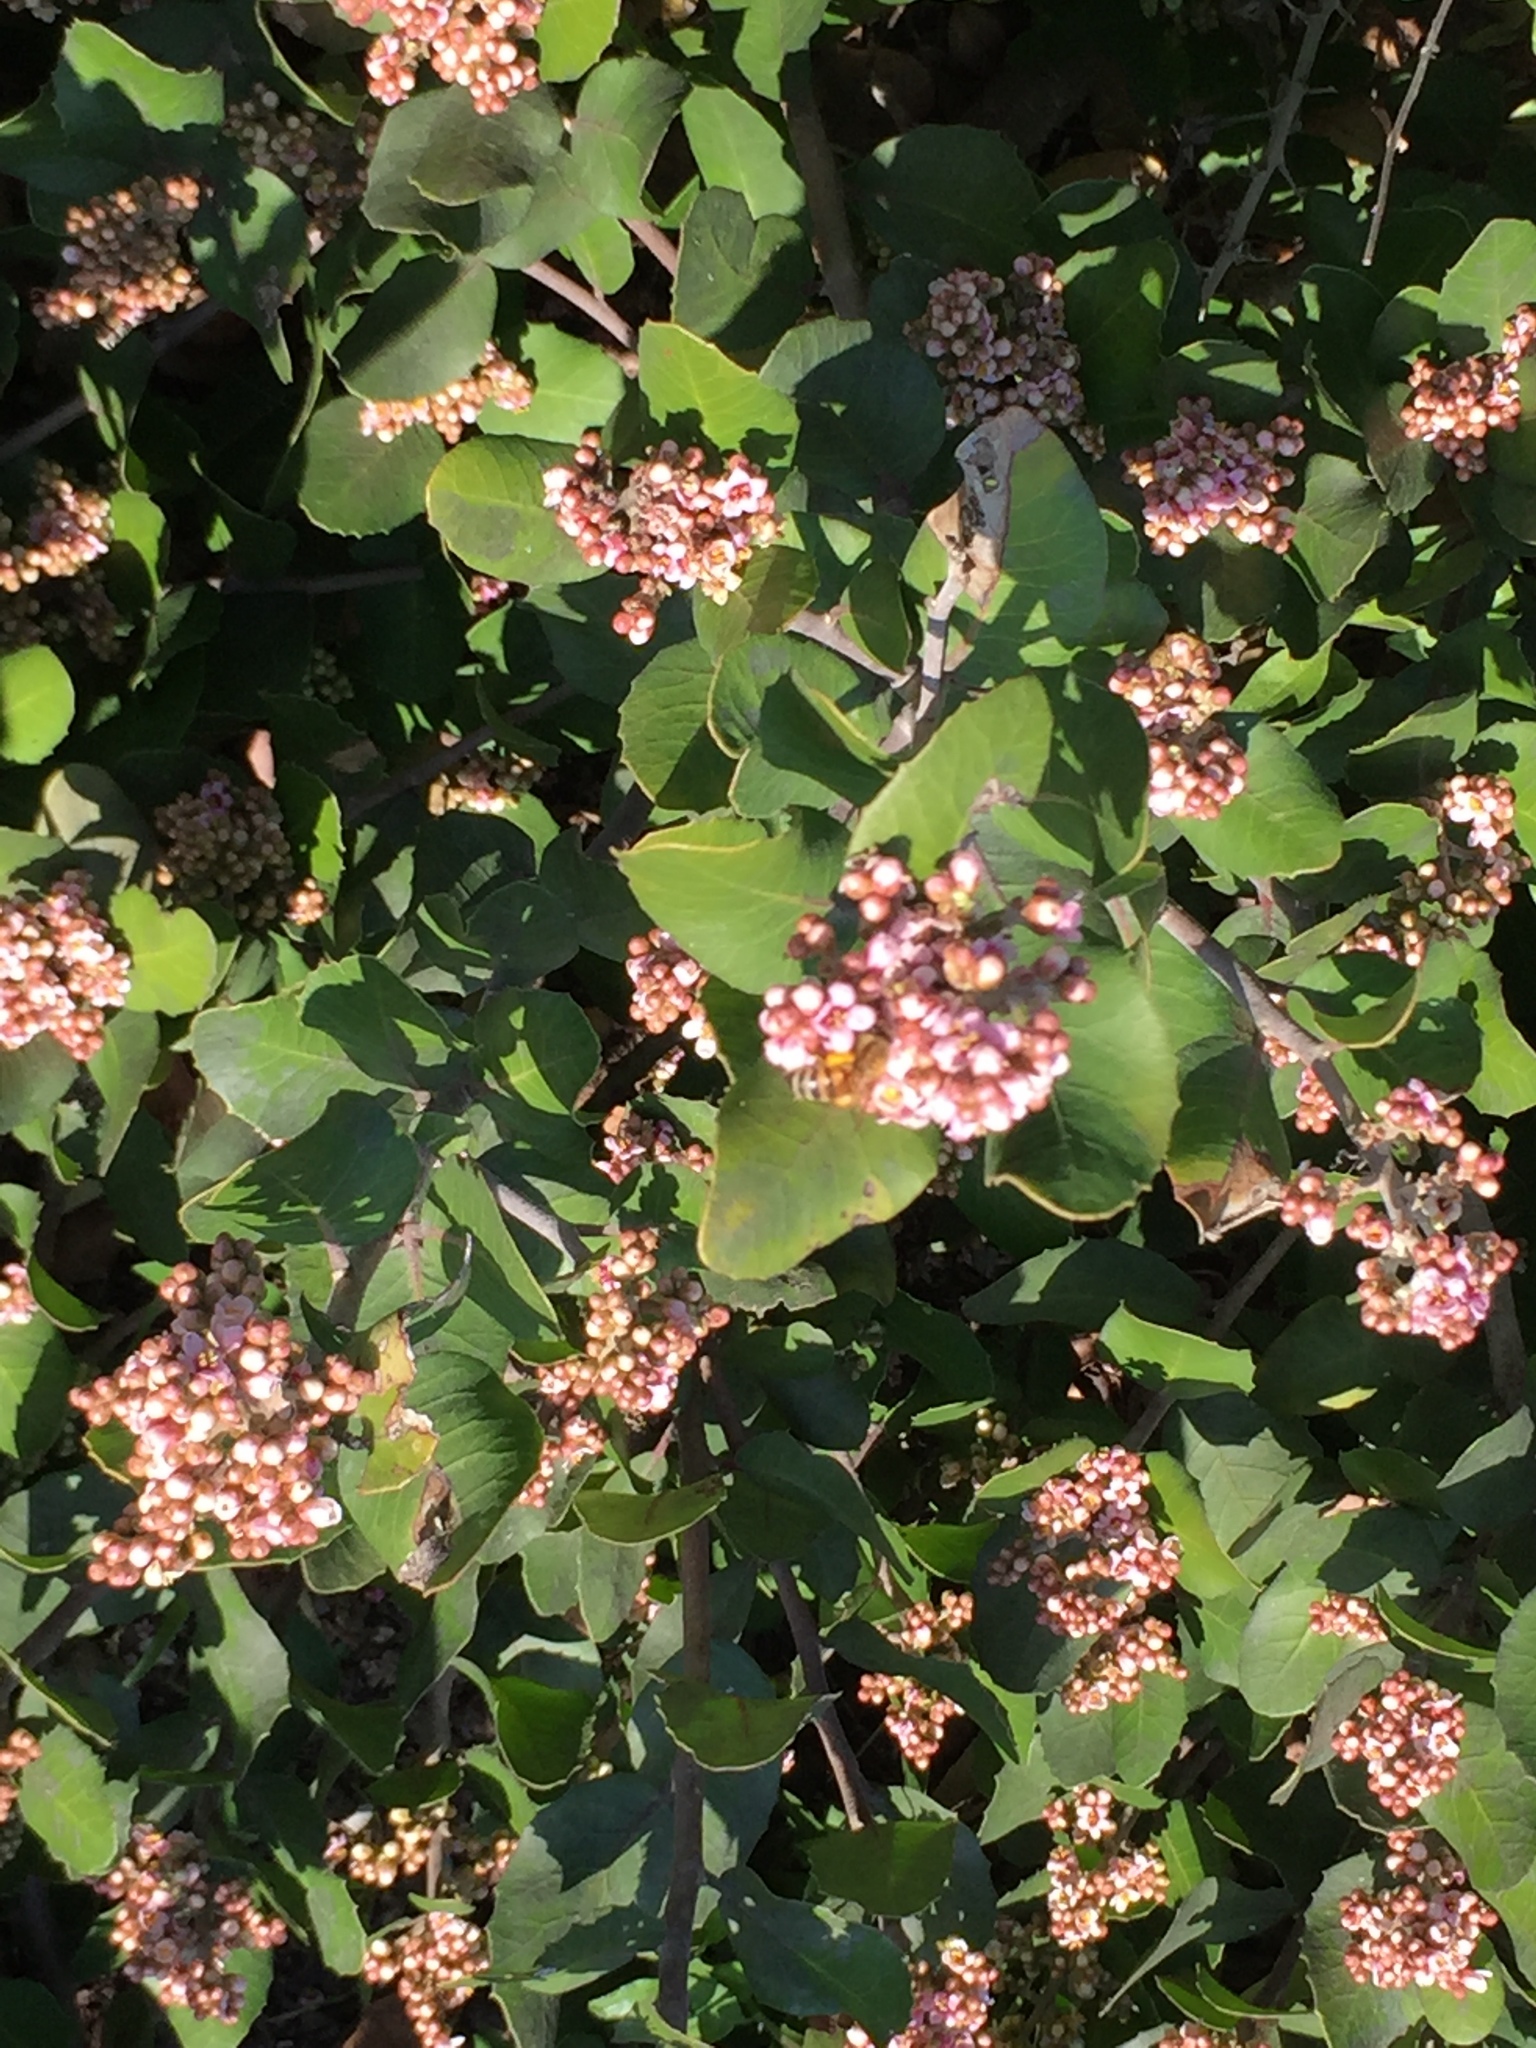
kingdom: Plantae
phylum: Tracheophyta
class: Magnoliopsida
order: Sapindales
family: Anacardiaceae
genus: Rhus
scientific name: Rhus integrifolia
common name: Lemonade sumac
